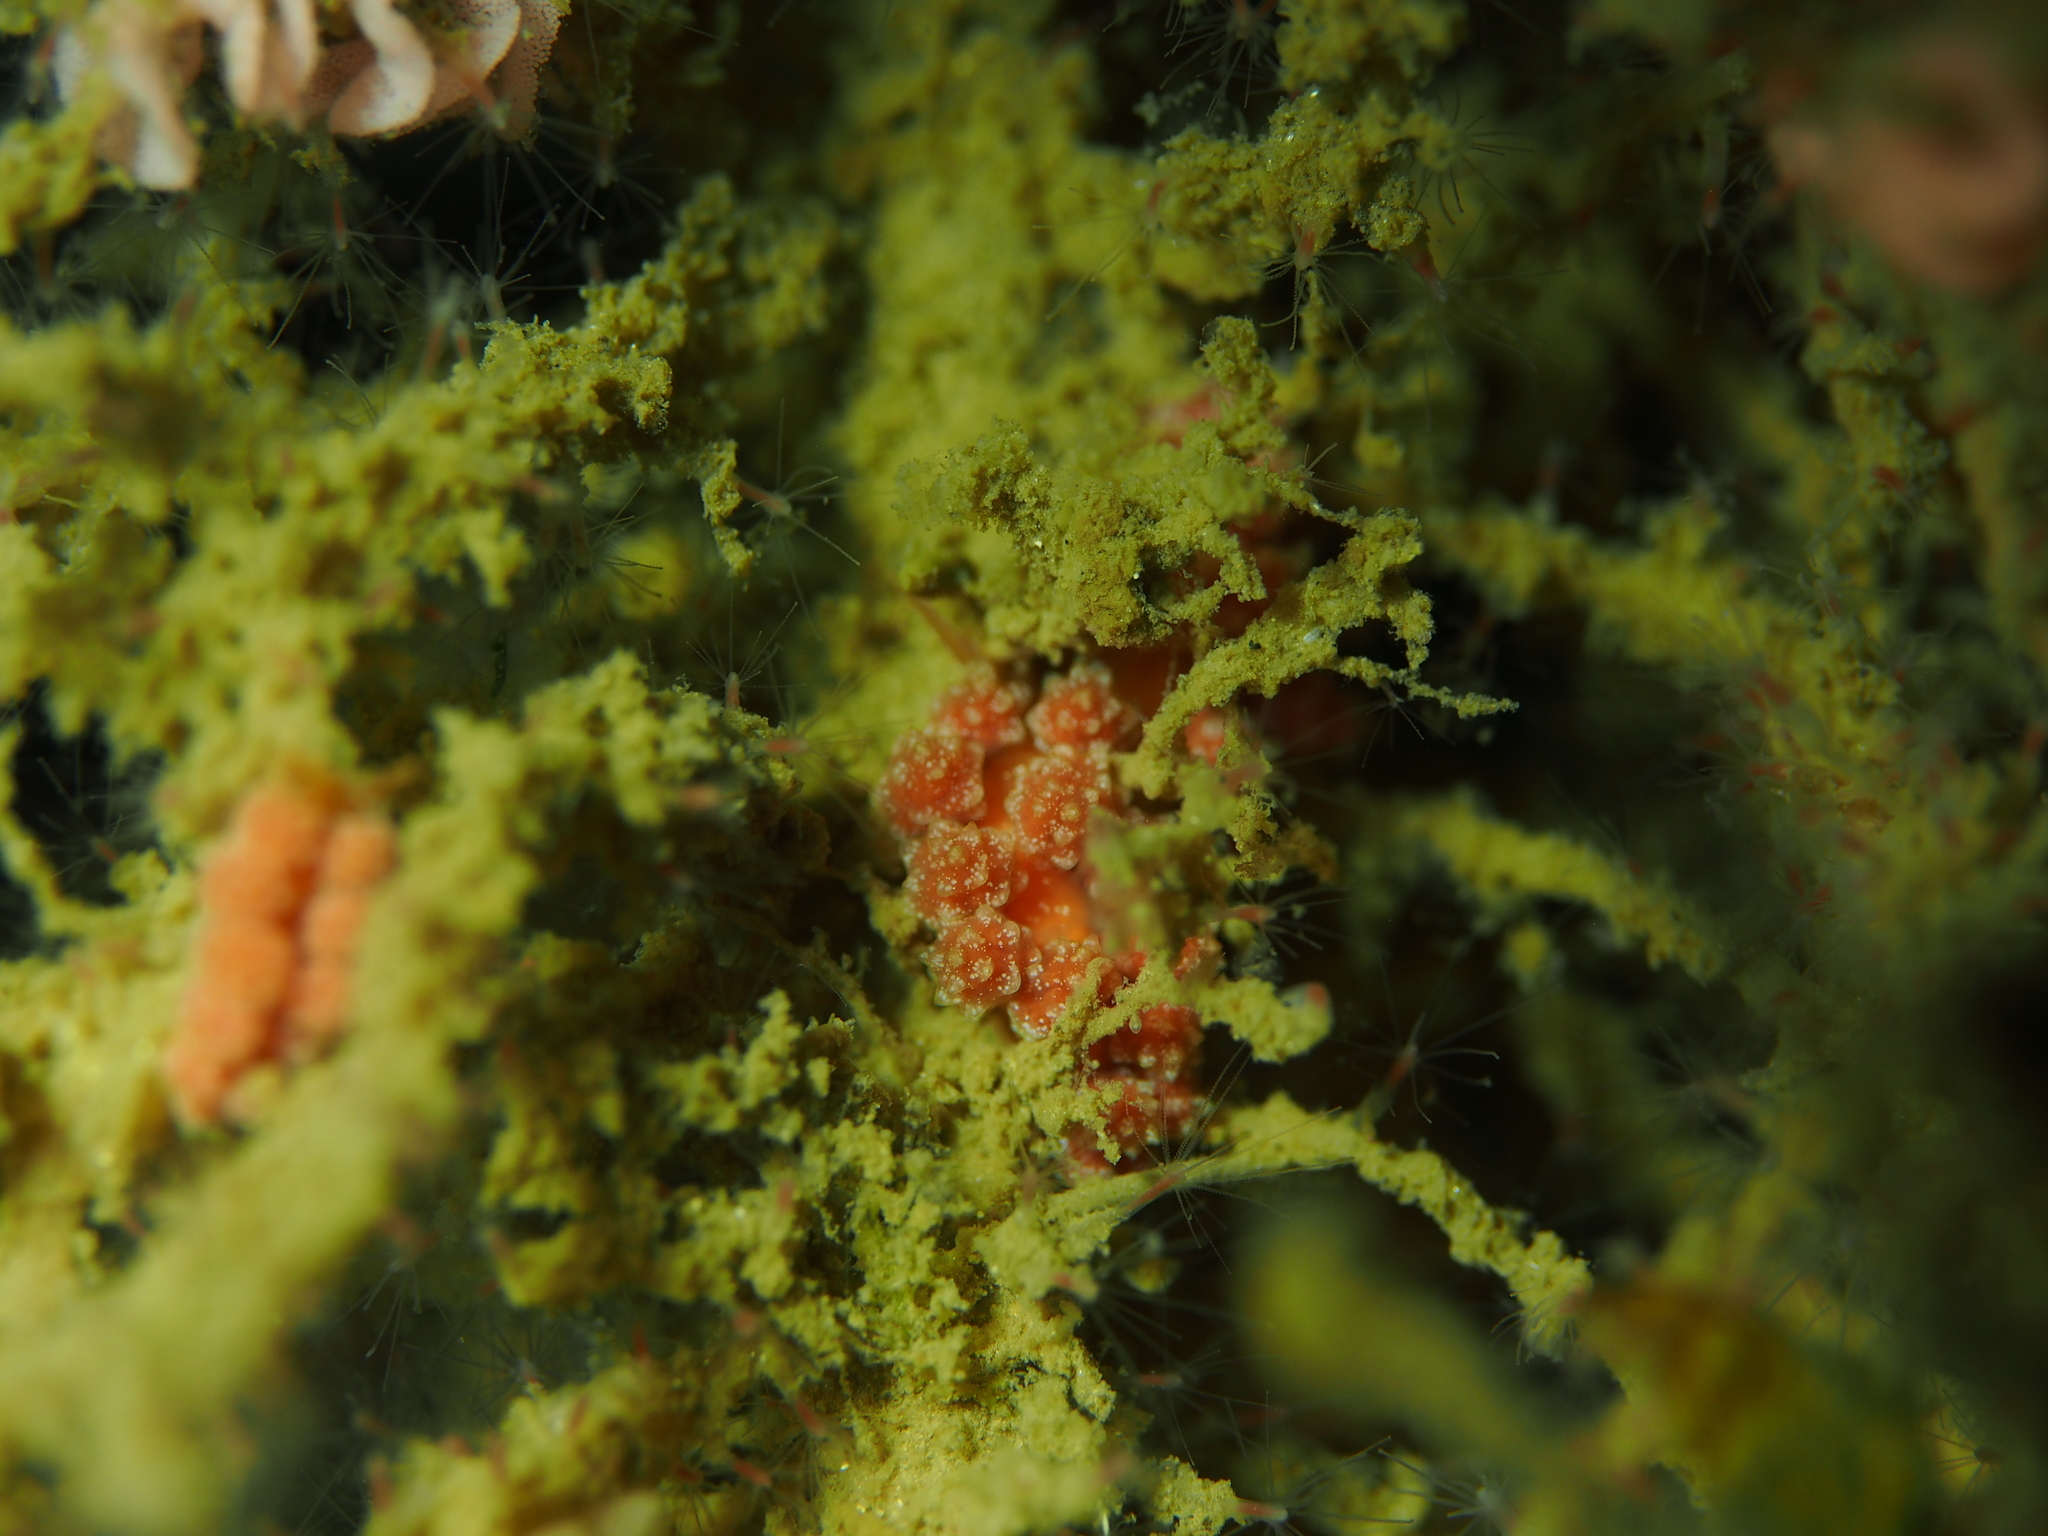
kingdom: Animalia
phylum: Mollusca
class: Gastropoda
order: Nudibranchia
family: Dotidae
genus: Doto
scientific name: Doto fragilis
